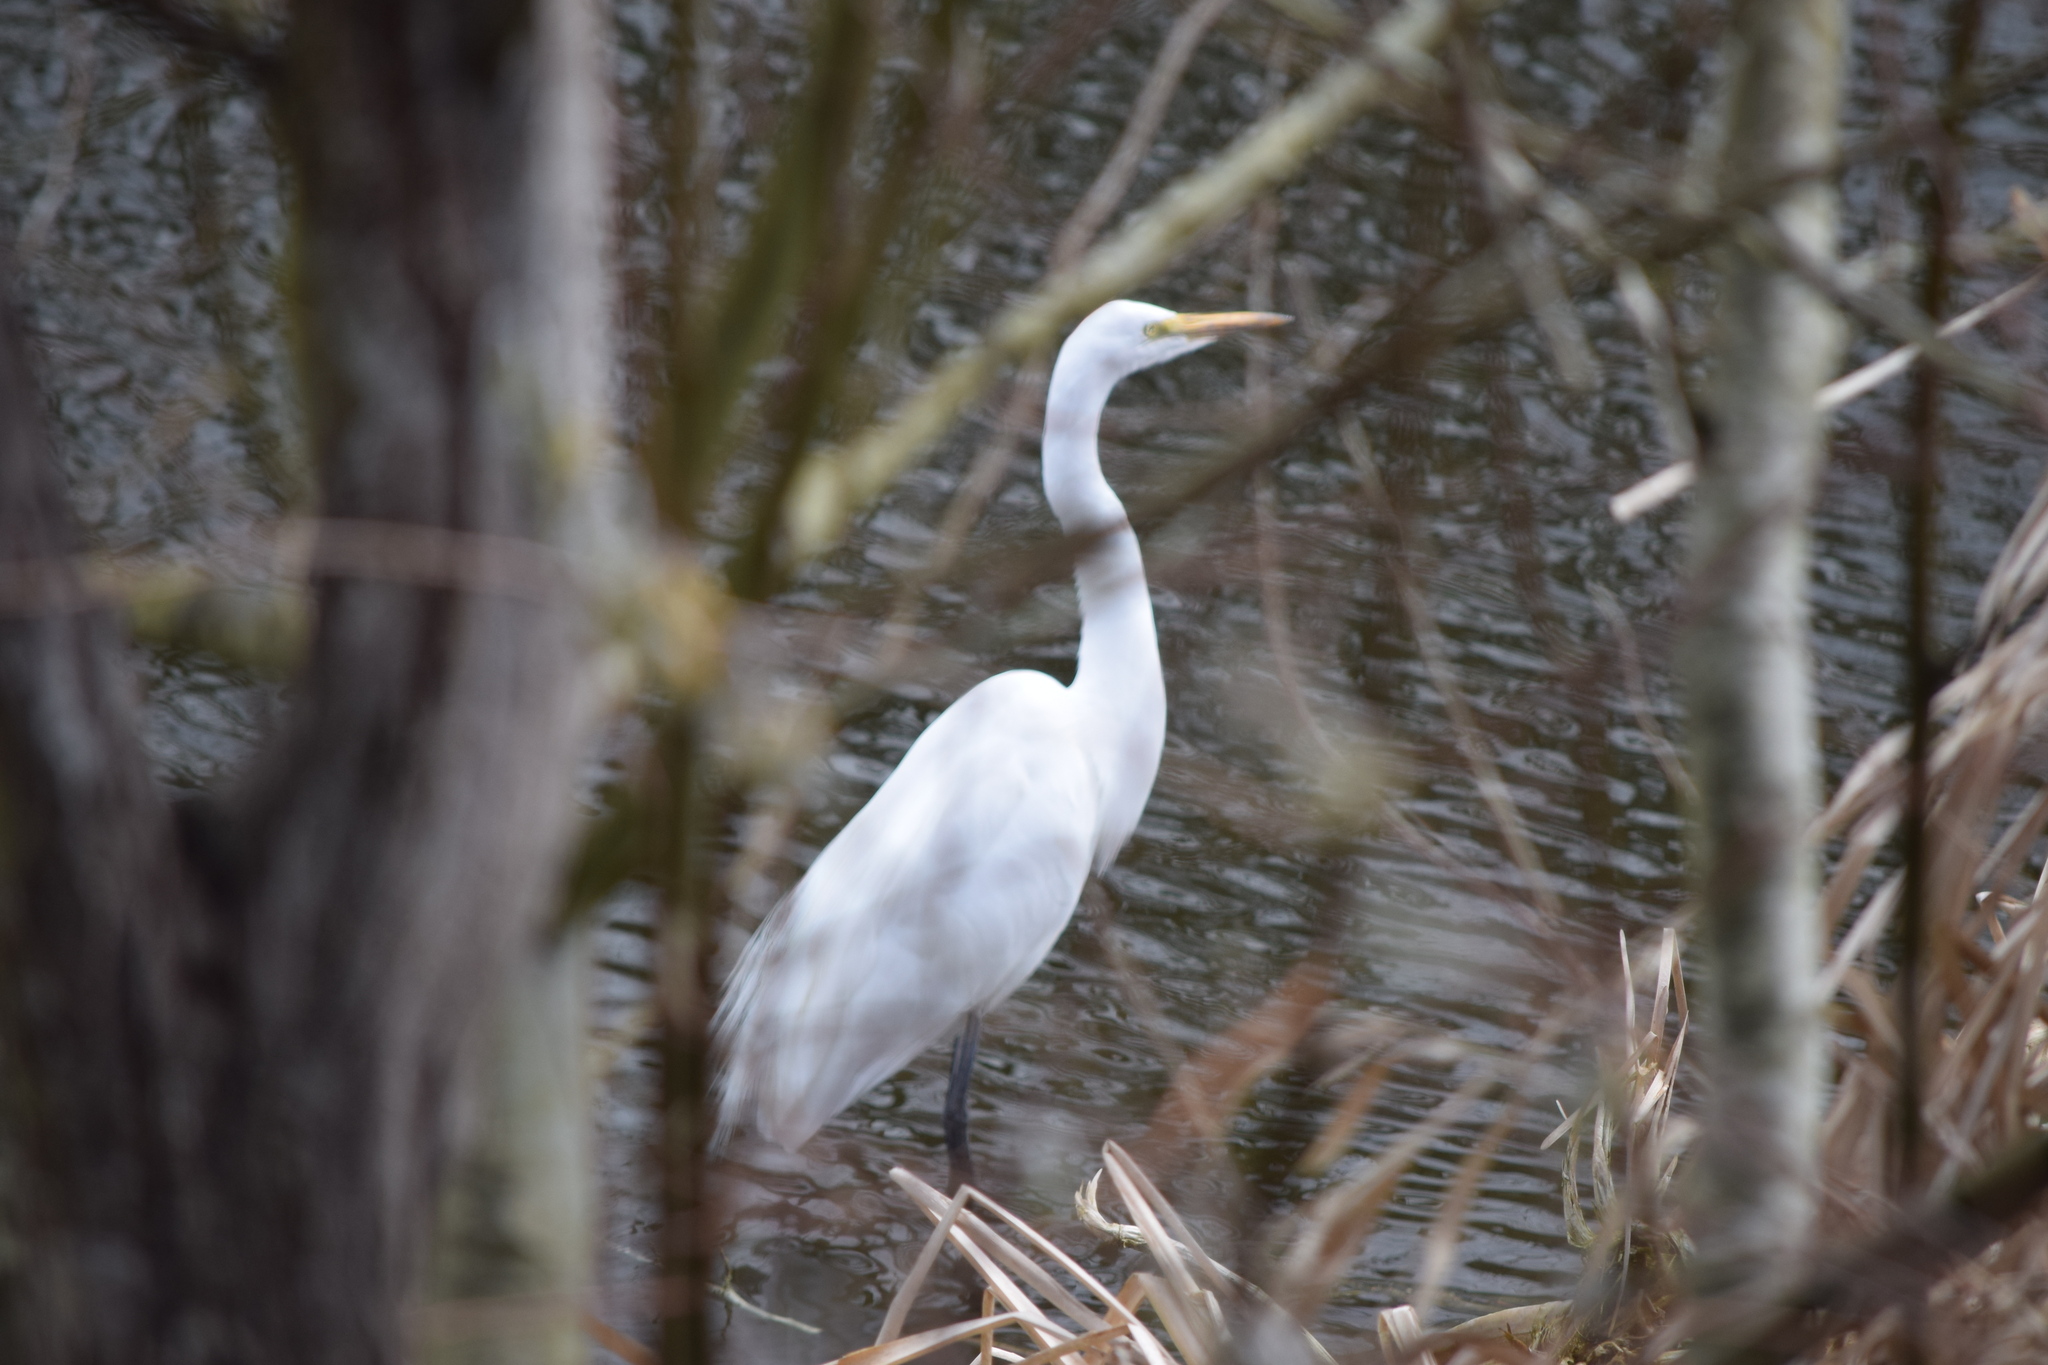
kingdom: Animalia
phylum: Chordata
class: Aves
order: Pelecaniformes
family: Ardeidae
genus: Ardea
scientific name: Ardea alba
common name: Great egret
